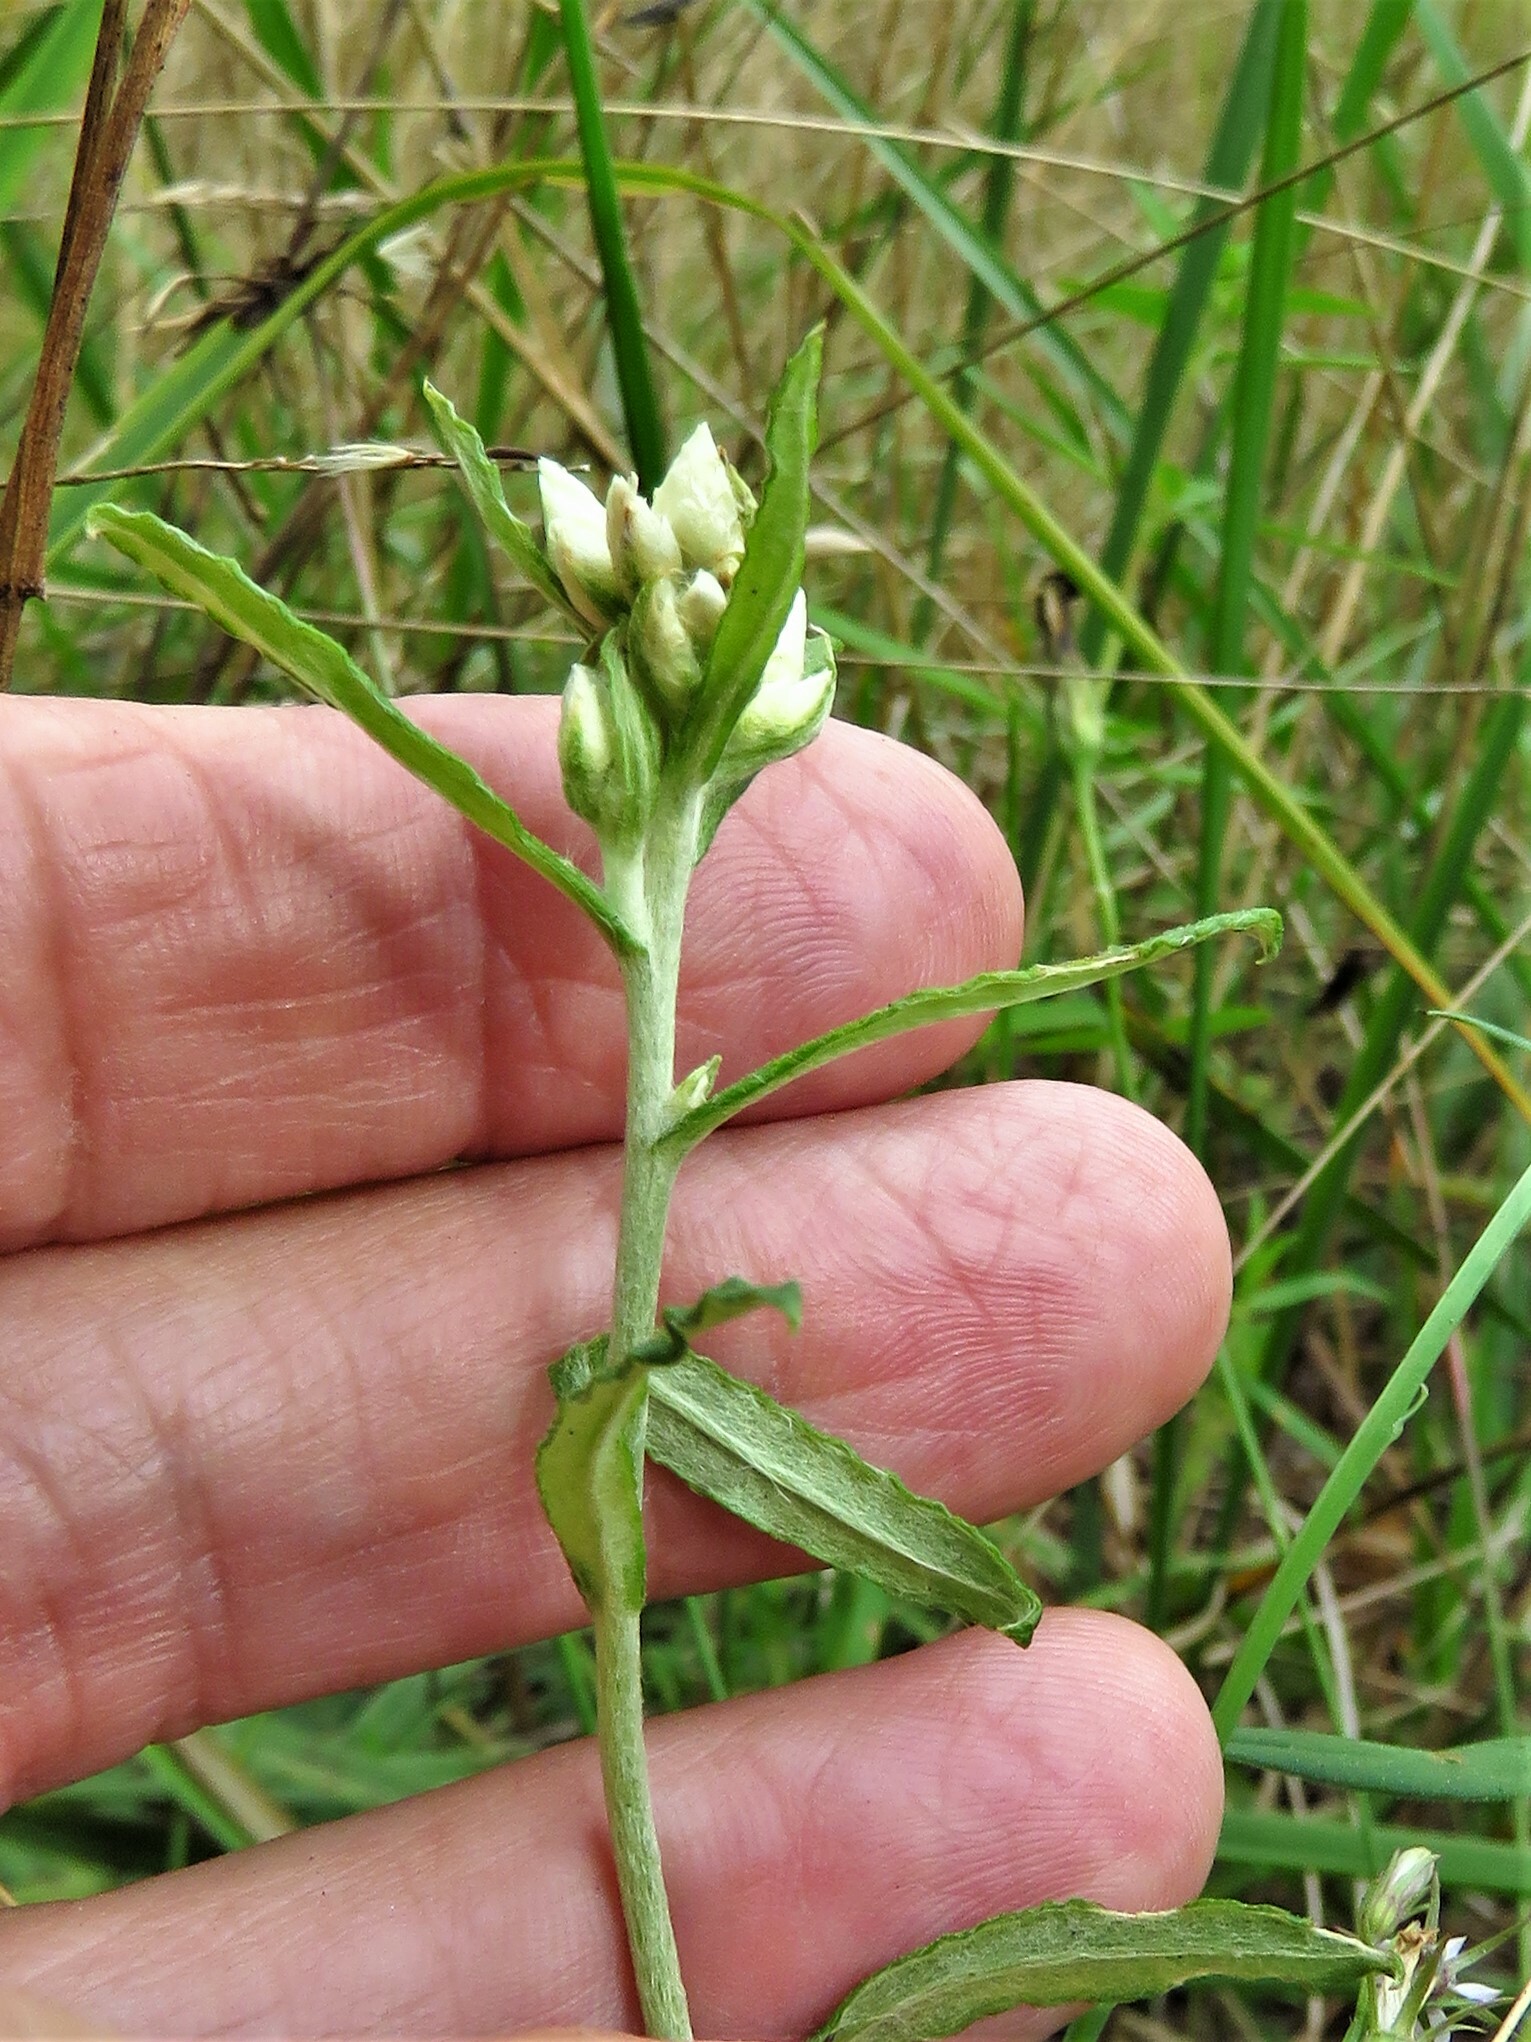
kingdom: Plantae
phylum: Tracheophyta
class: Magnoliopsida
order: Asterales
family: Asteraceae
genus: Pseudognaphalium
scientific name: Pseudognaphalium obtusifolium
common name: Eastern rabbit-tobacco
